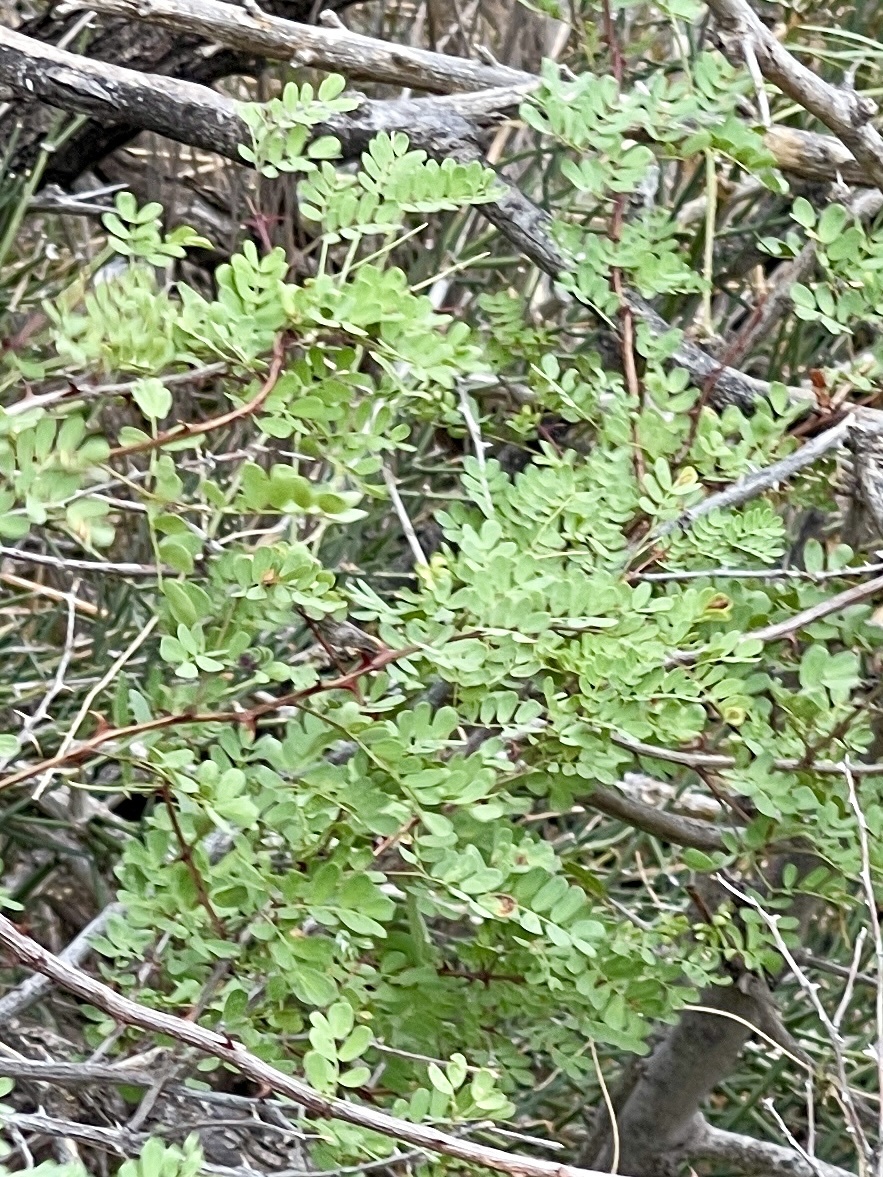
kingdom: Plantae
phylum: Tracheophyta
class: Magnoliopsida
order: Fabales
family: Fabaceae
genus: Senegalia
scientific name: Senegalia roemeriana
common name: Roemer's acacia
